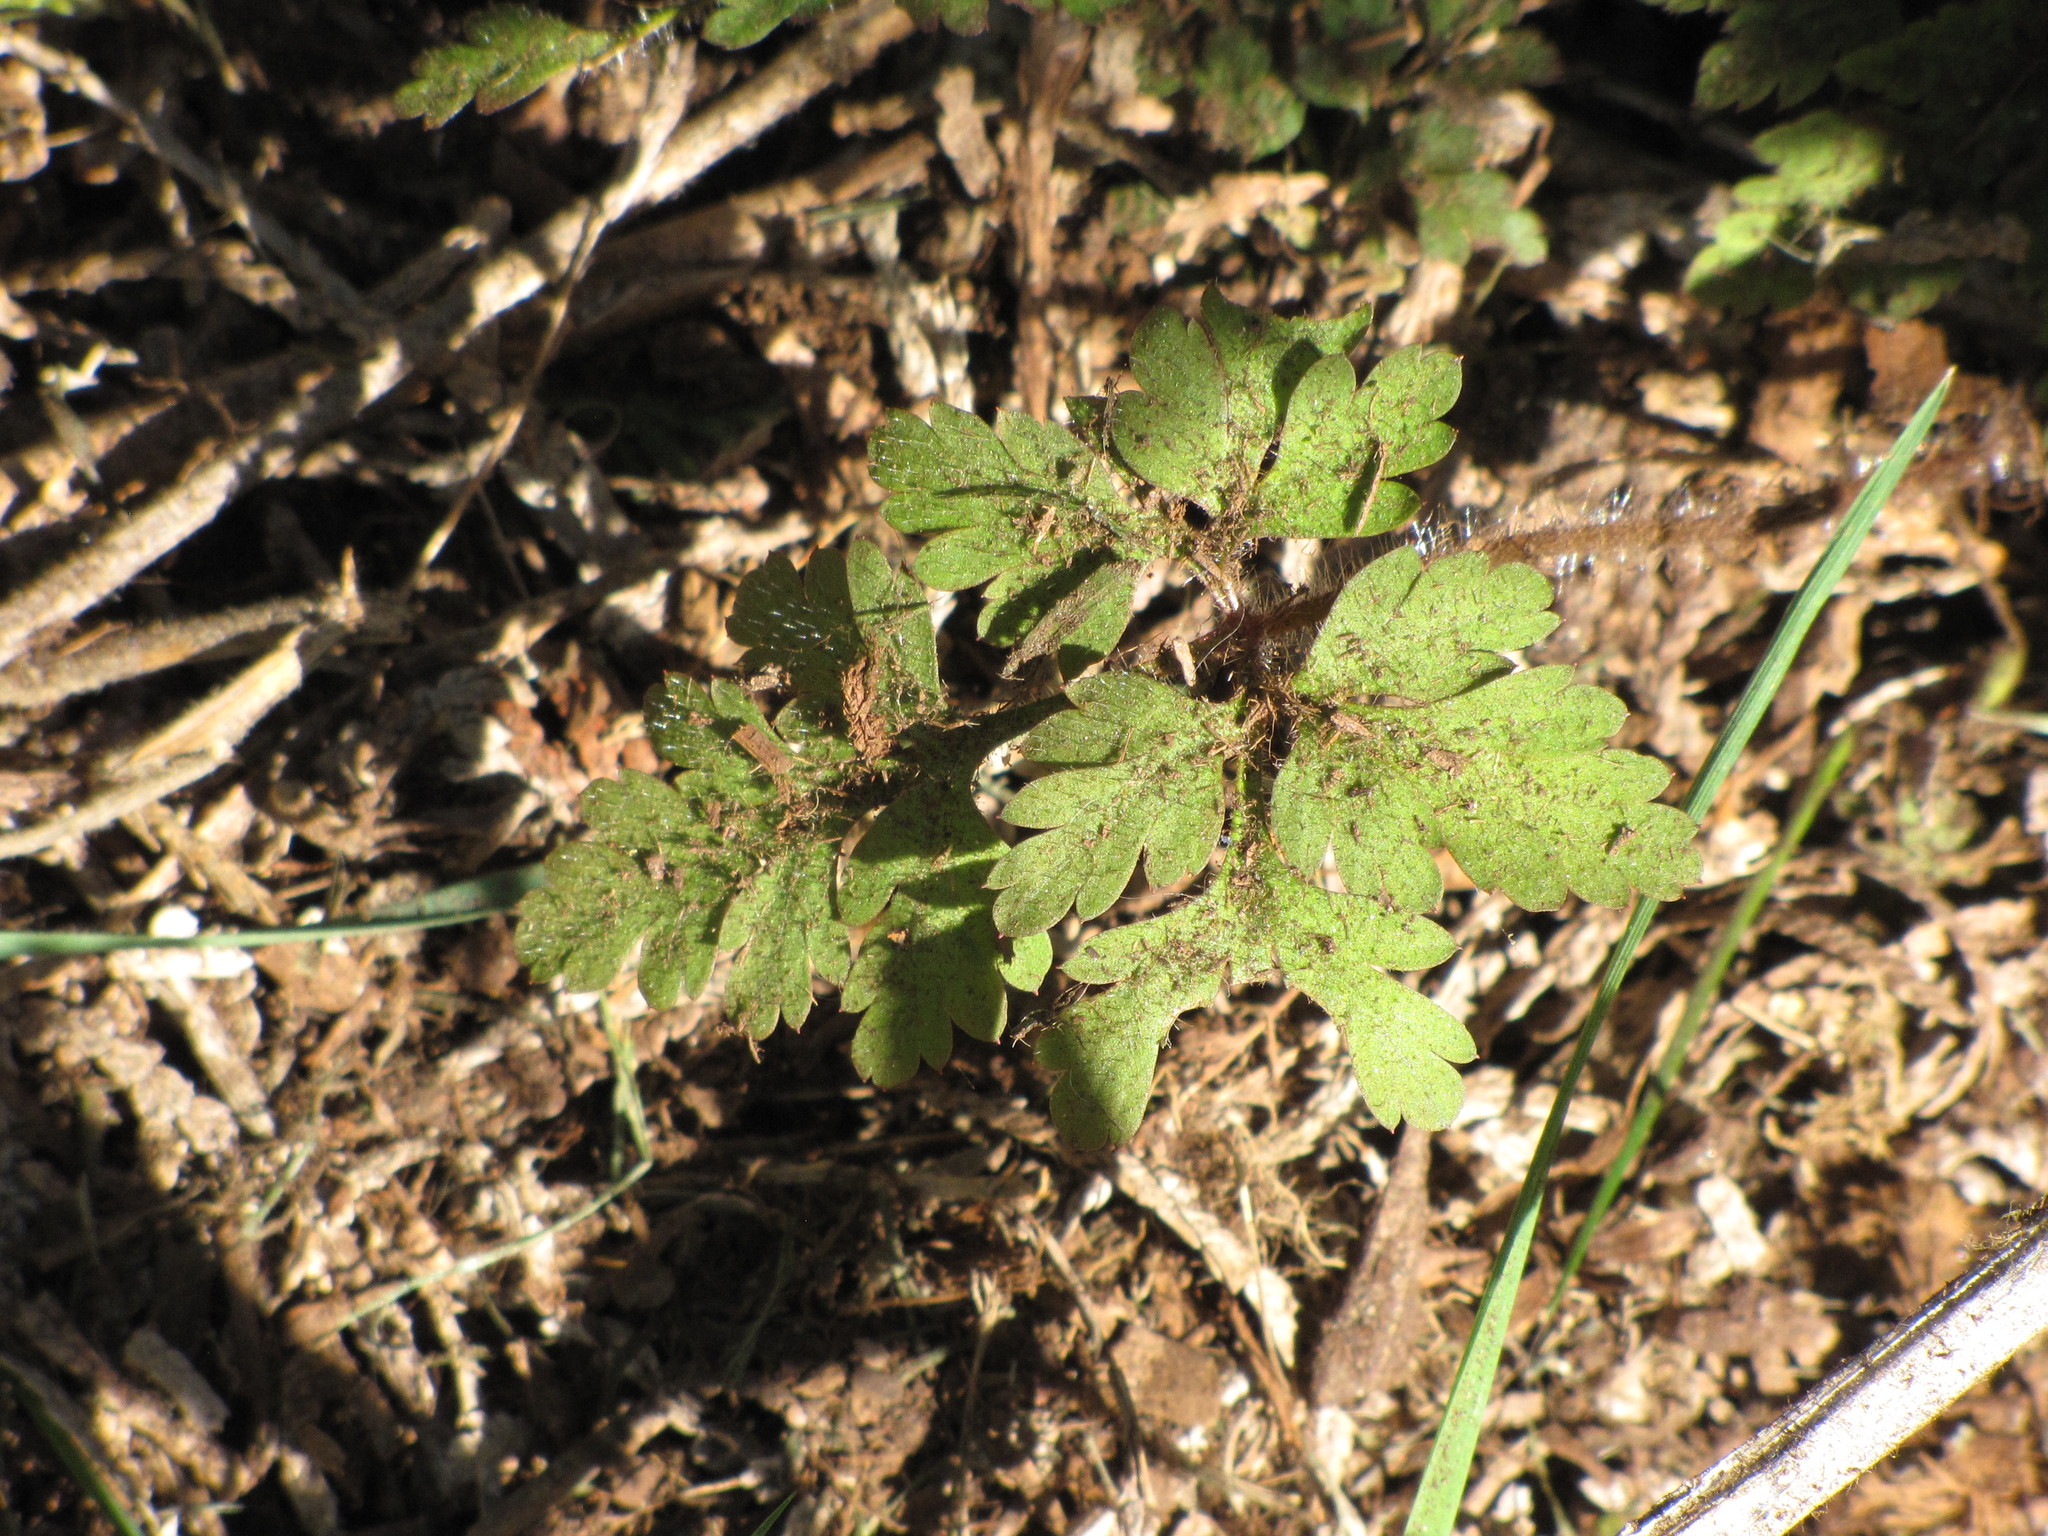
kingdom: Plantae
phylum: Tracheophyta
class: Magnoliopsida
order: Geraniales
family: Geraniaceae
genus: Geranium
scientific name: Geranium robertianum
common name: Herb-robert
